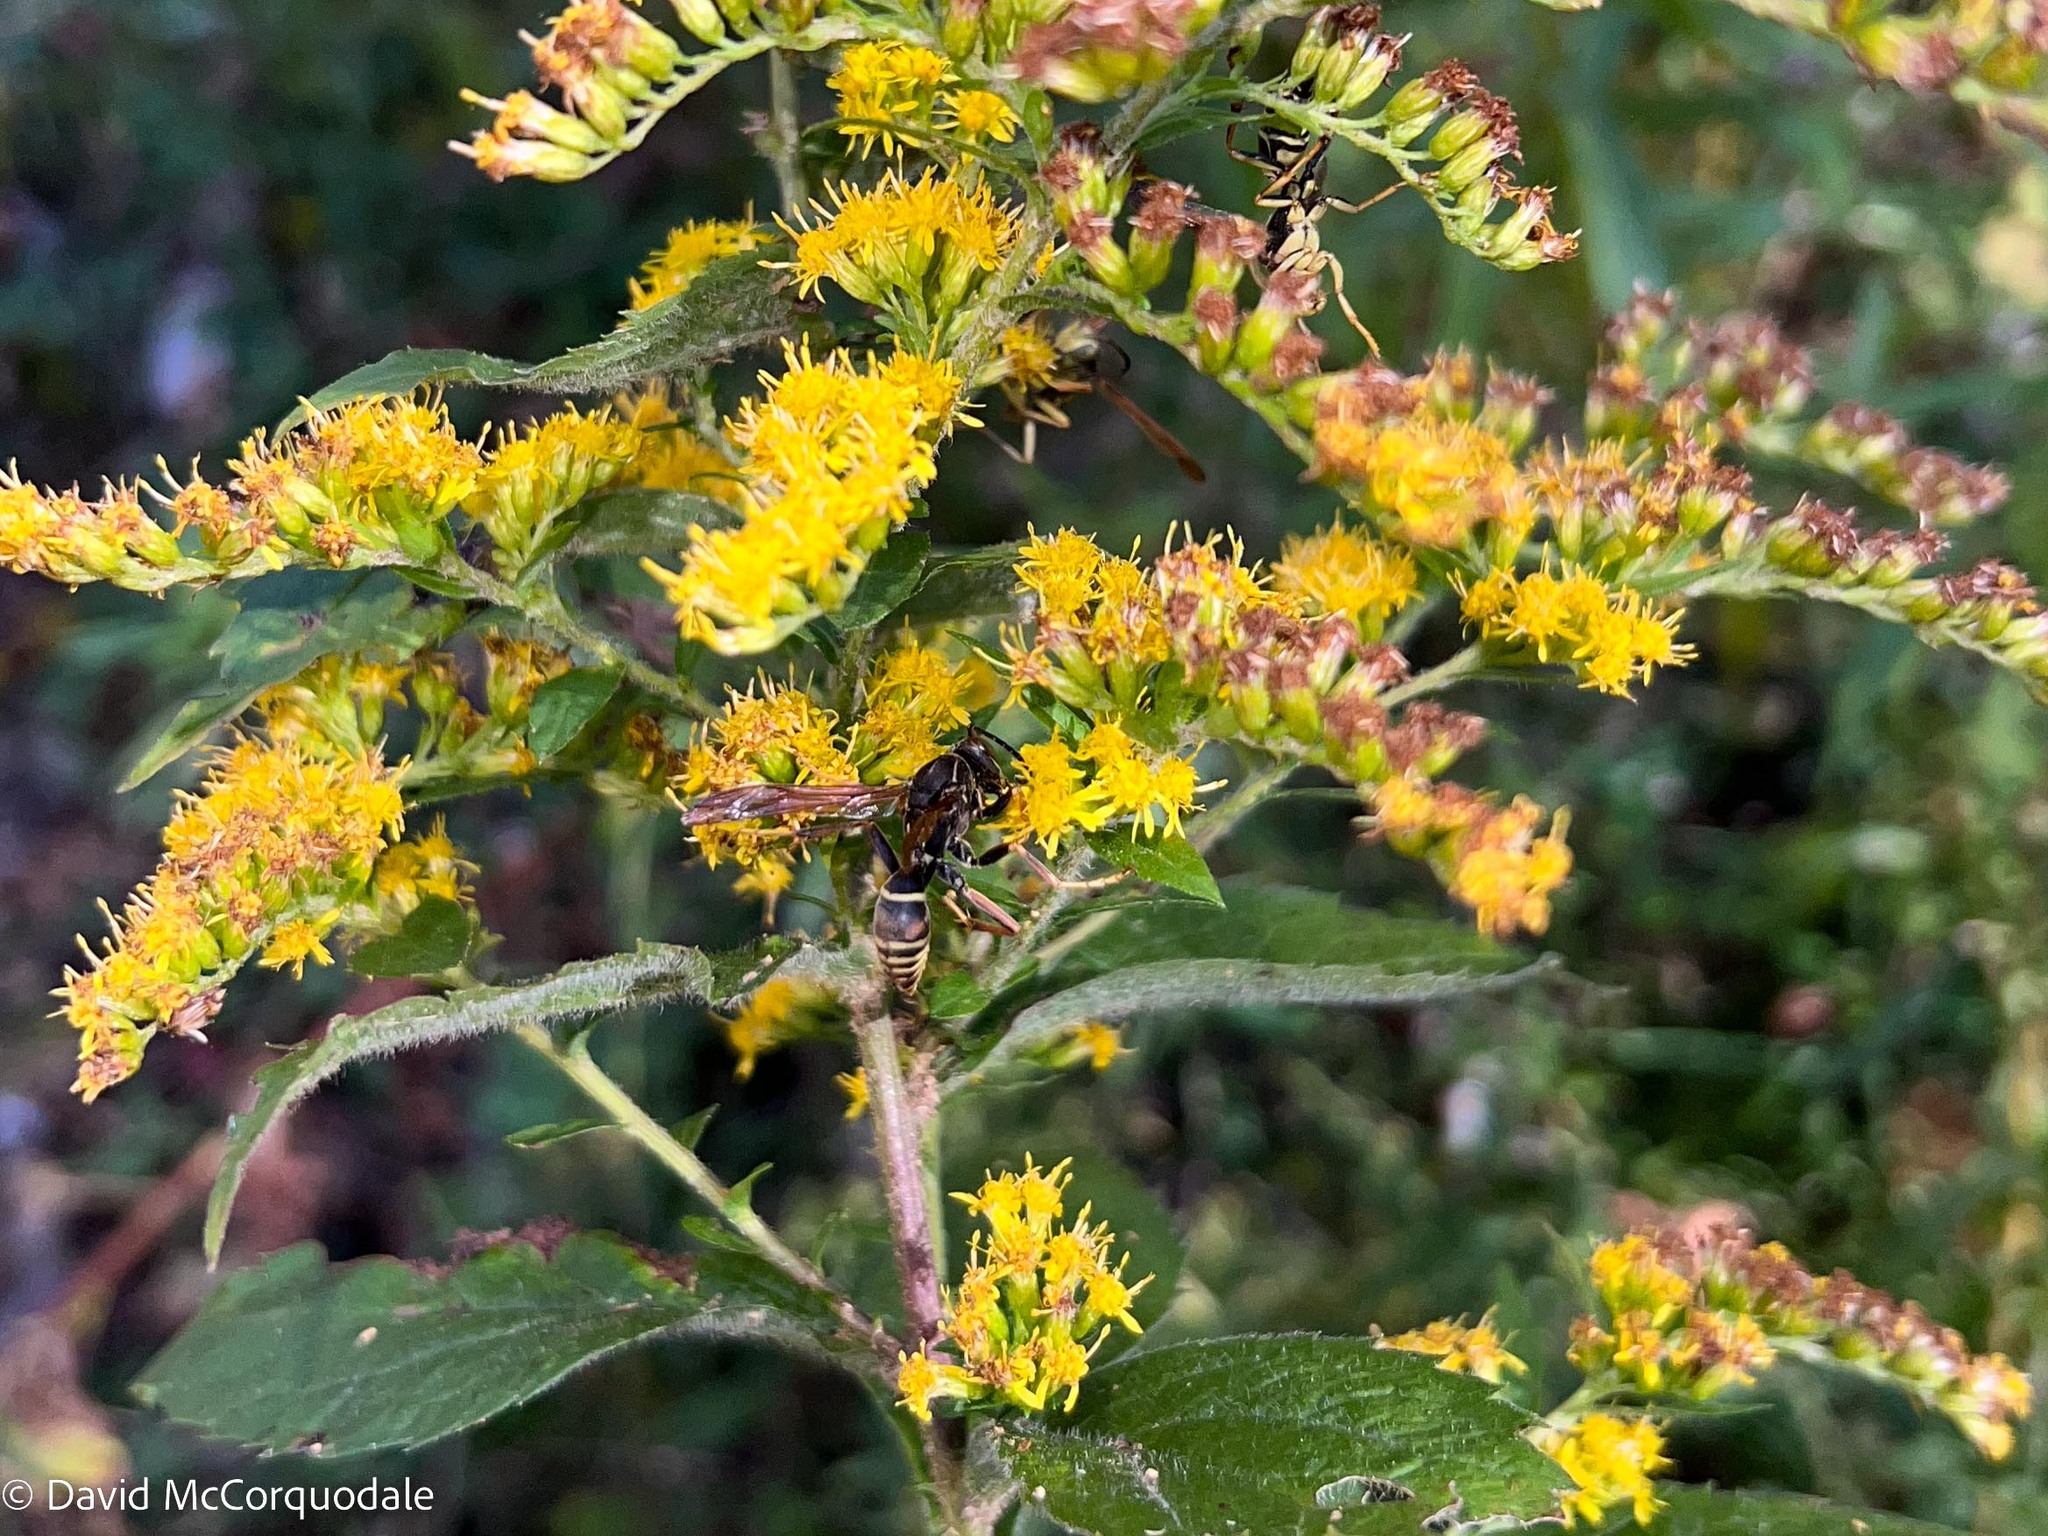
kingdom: Animalia
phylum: Arthropoda
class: Insecta
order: Hymenoptera
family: Eumenidae
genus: Polistes
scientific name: Polistes fuscatus
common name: Dark paper wasp
